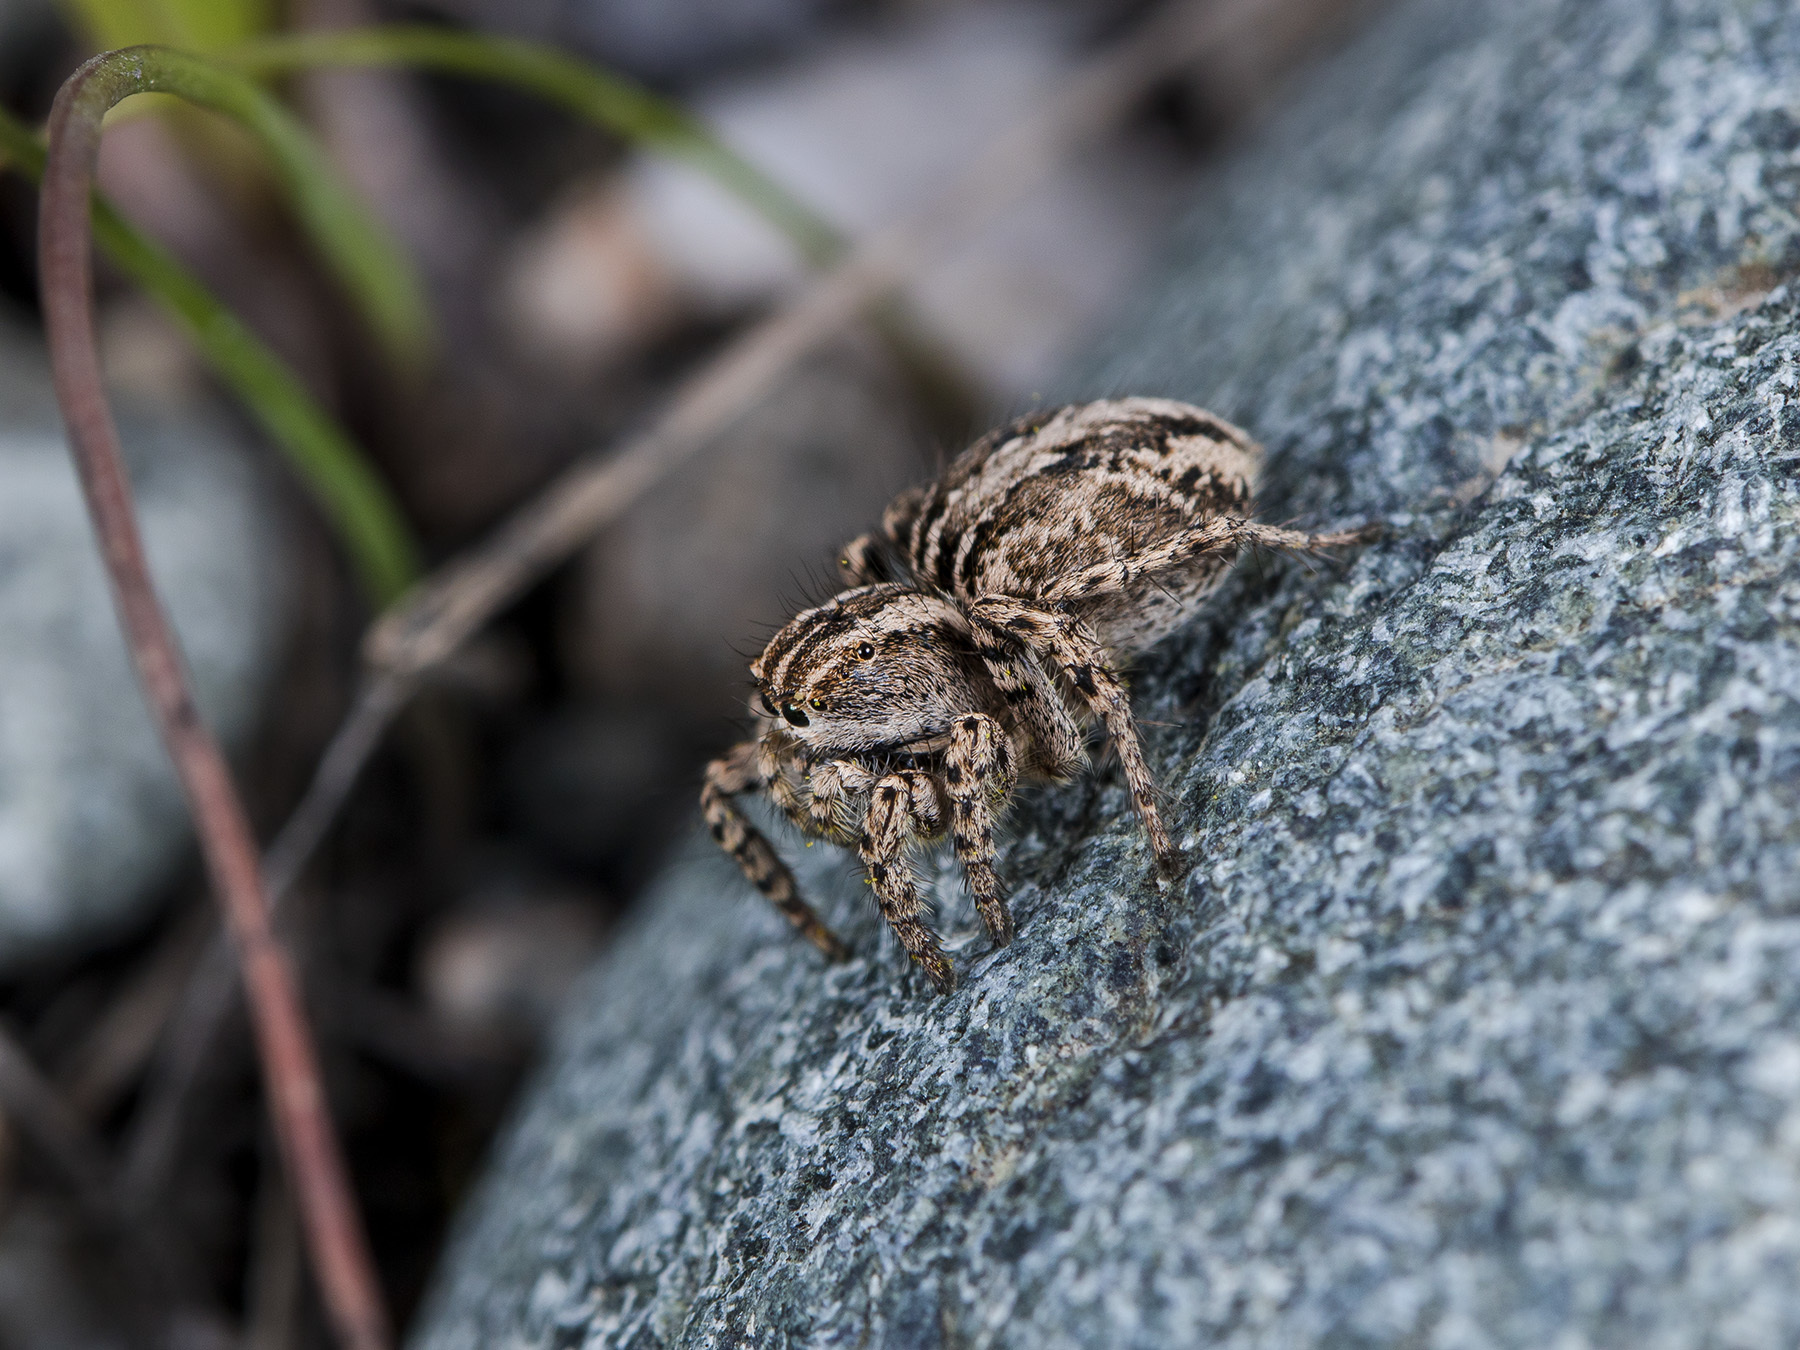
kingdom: Animalia
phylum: Arthropoda
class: Arachnida
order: Araneae
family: Salticidae
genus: Aelurillus
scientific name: Aelurillus m-nigrum
